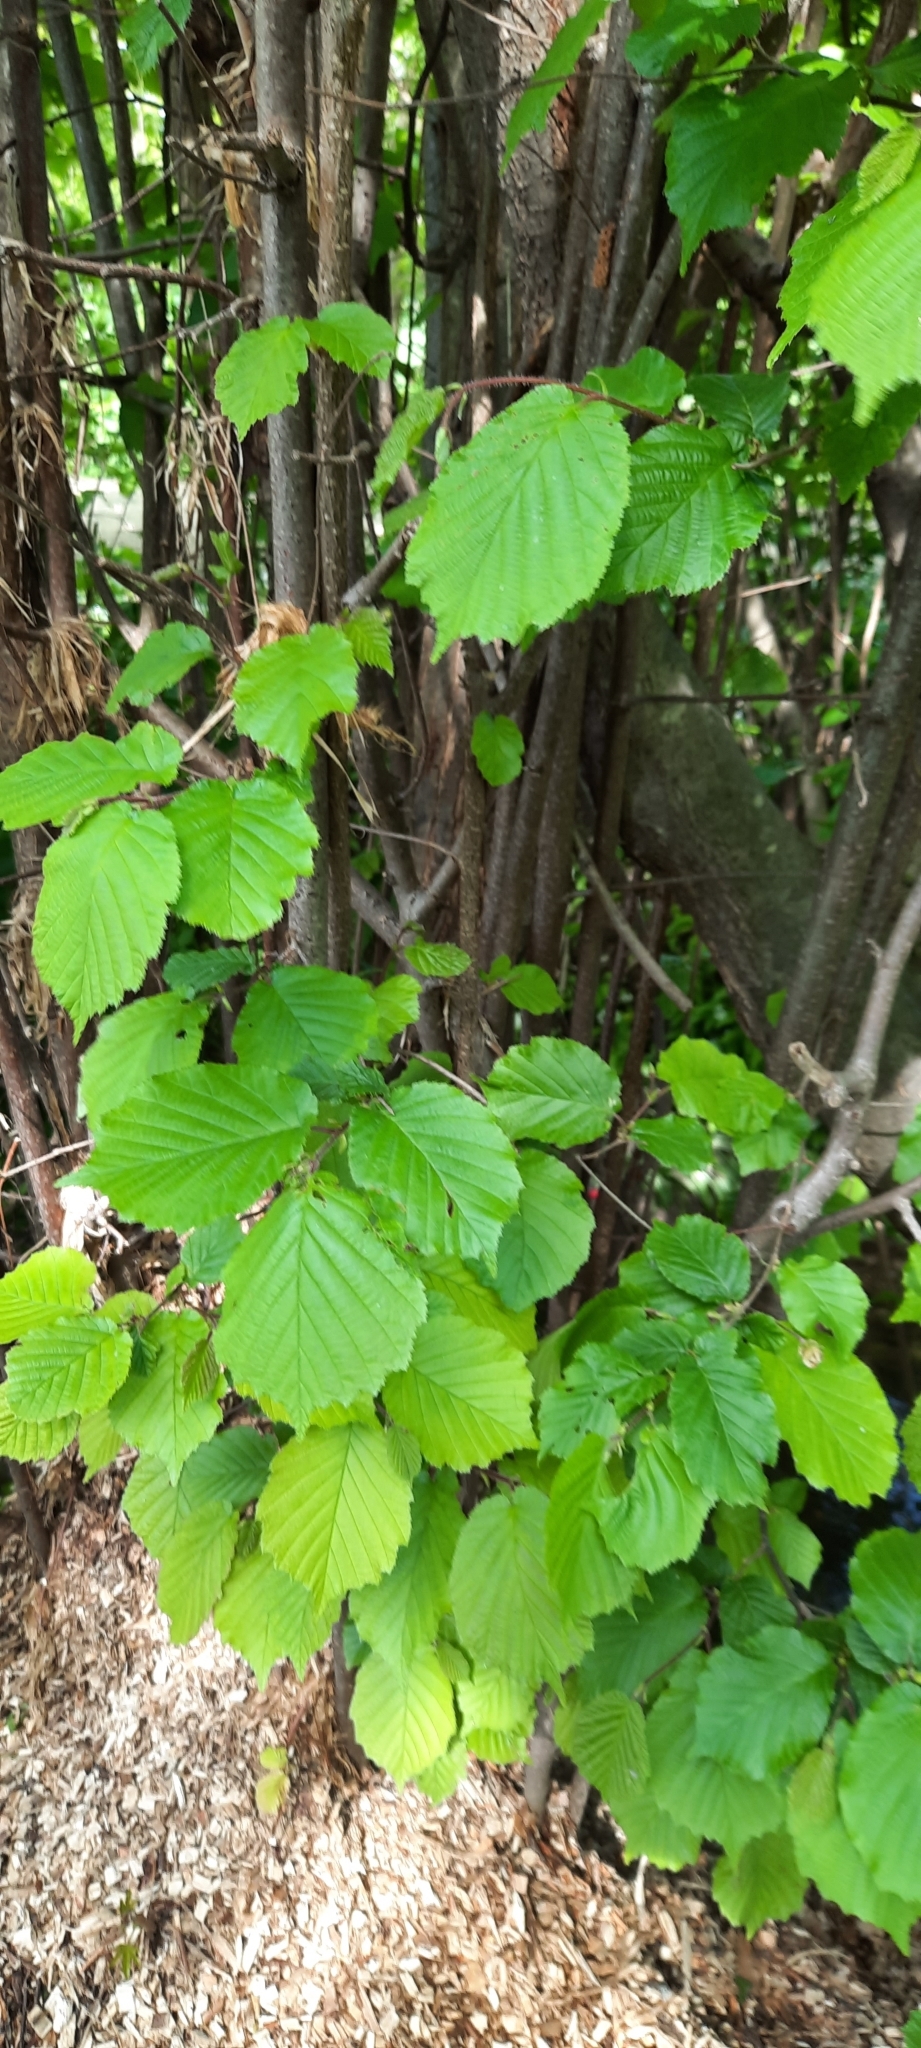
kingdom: Plantae
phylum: Tracheophyta
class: Magnoliopsida
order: Fagales
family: Betulaceae
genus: Corylus
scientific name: Corylus avellana
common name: European hazel
